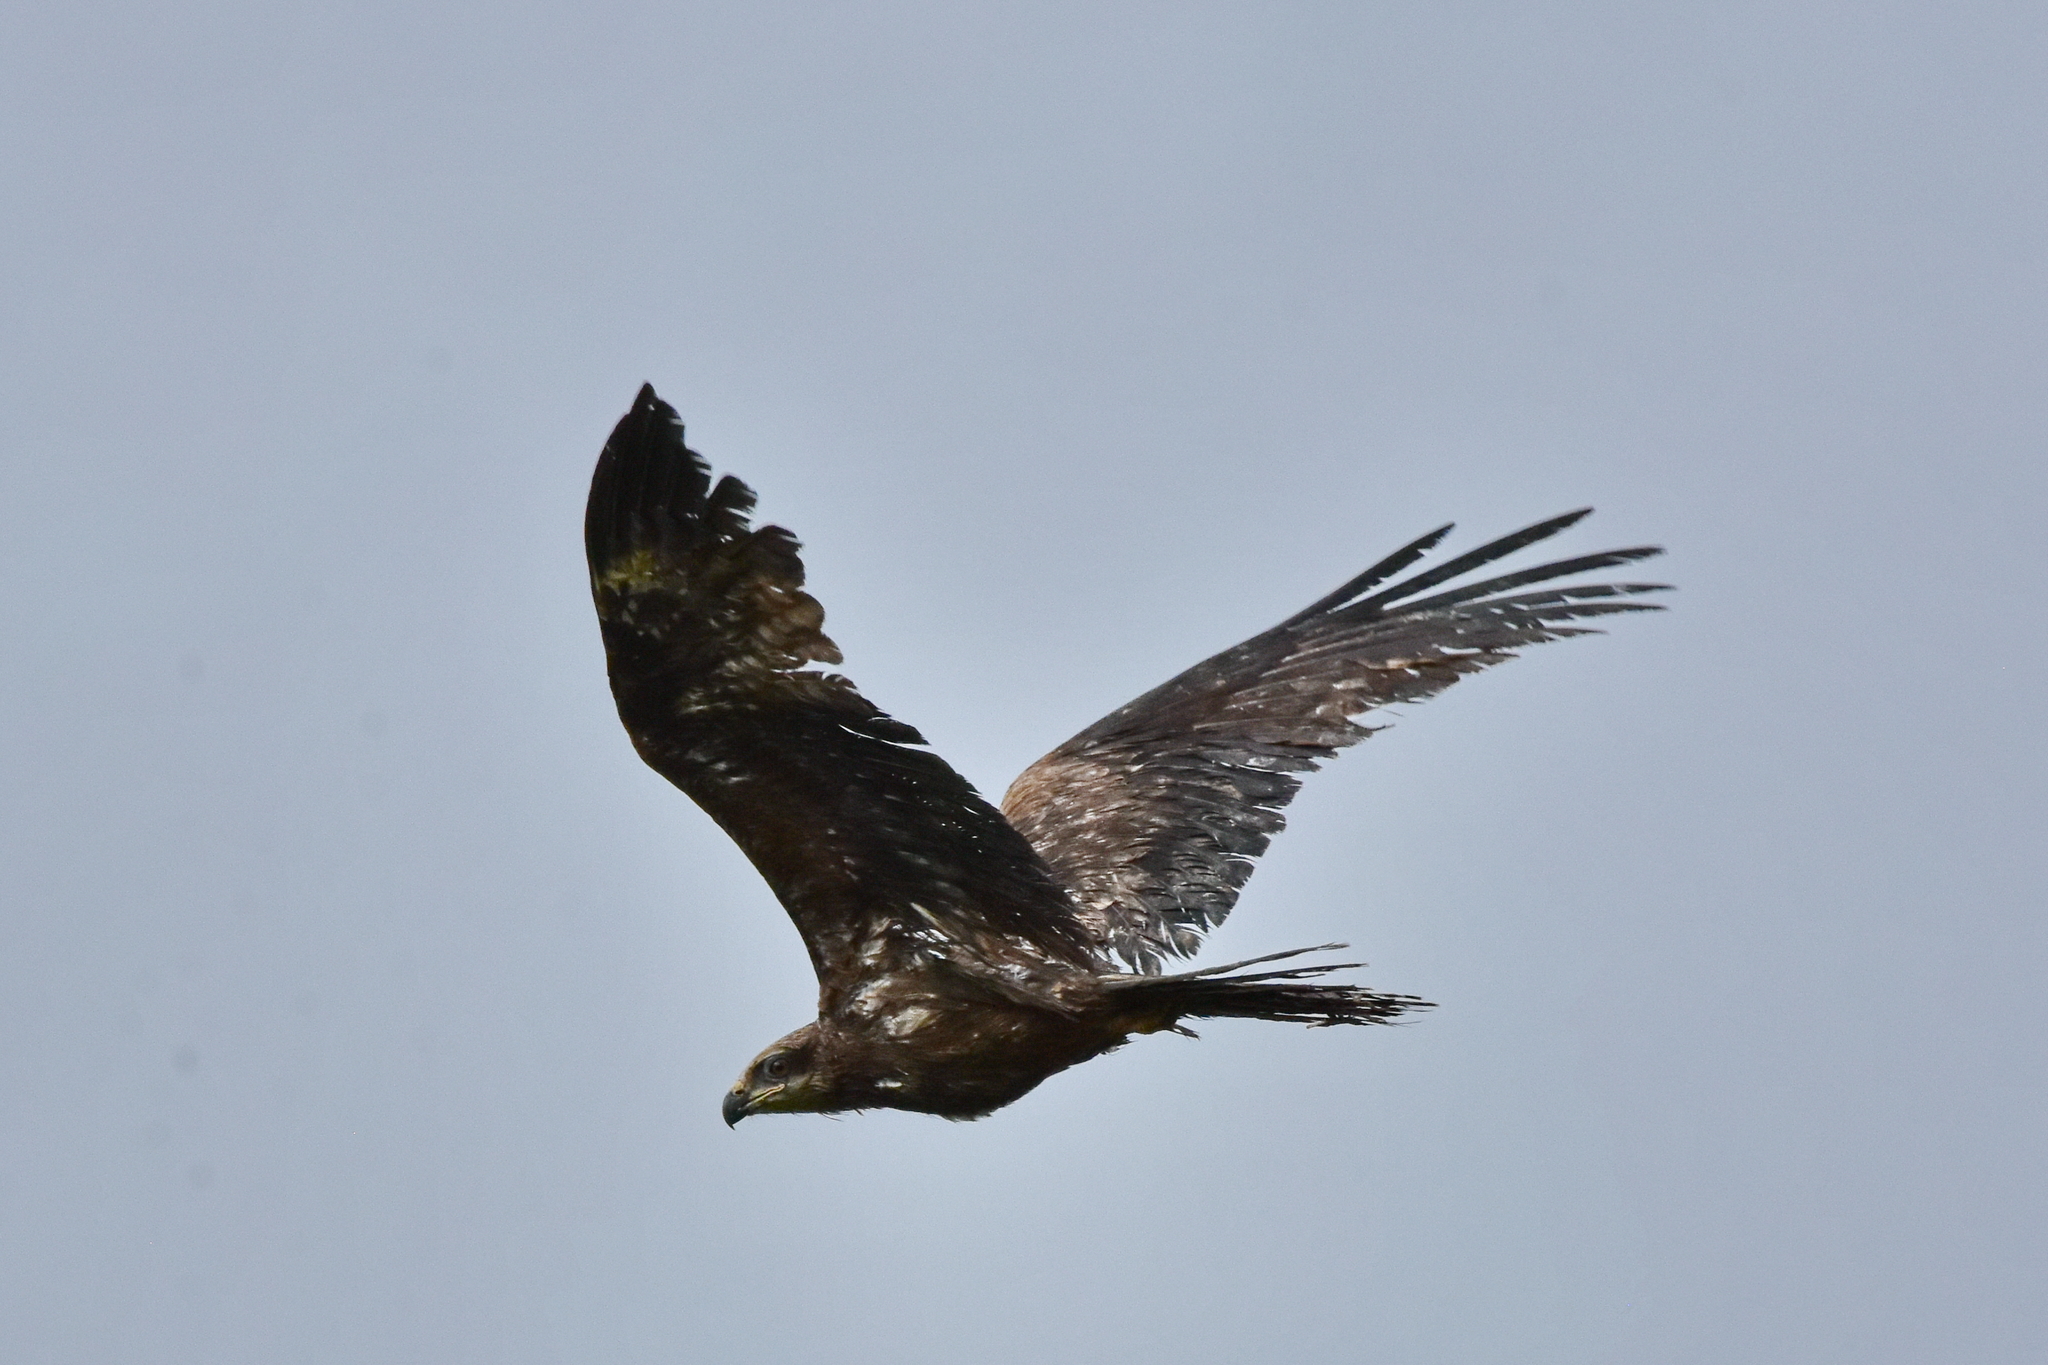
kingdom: Animalia
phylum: Chordata
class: Aves
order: Accipitriformes
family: Accipitridae
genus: Aquila
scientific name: Aquila clanga
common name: Greater spotted eagle
